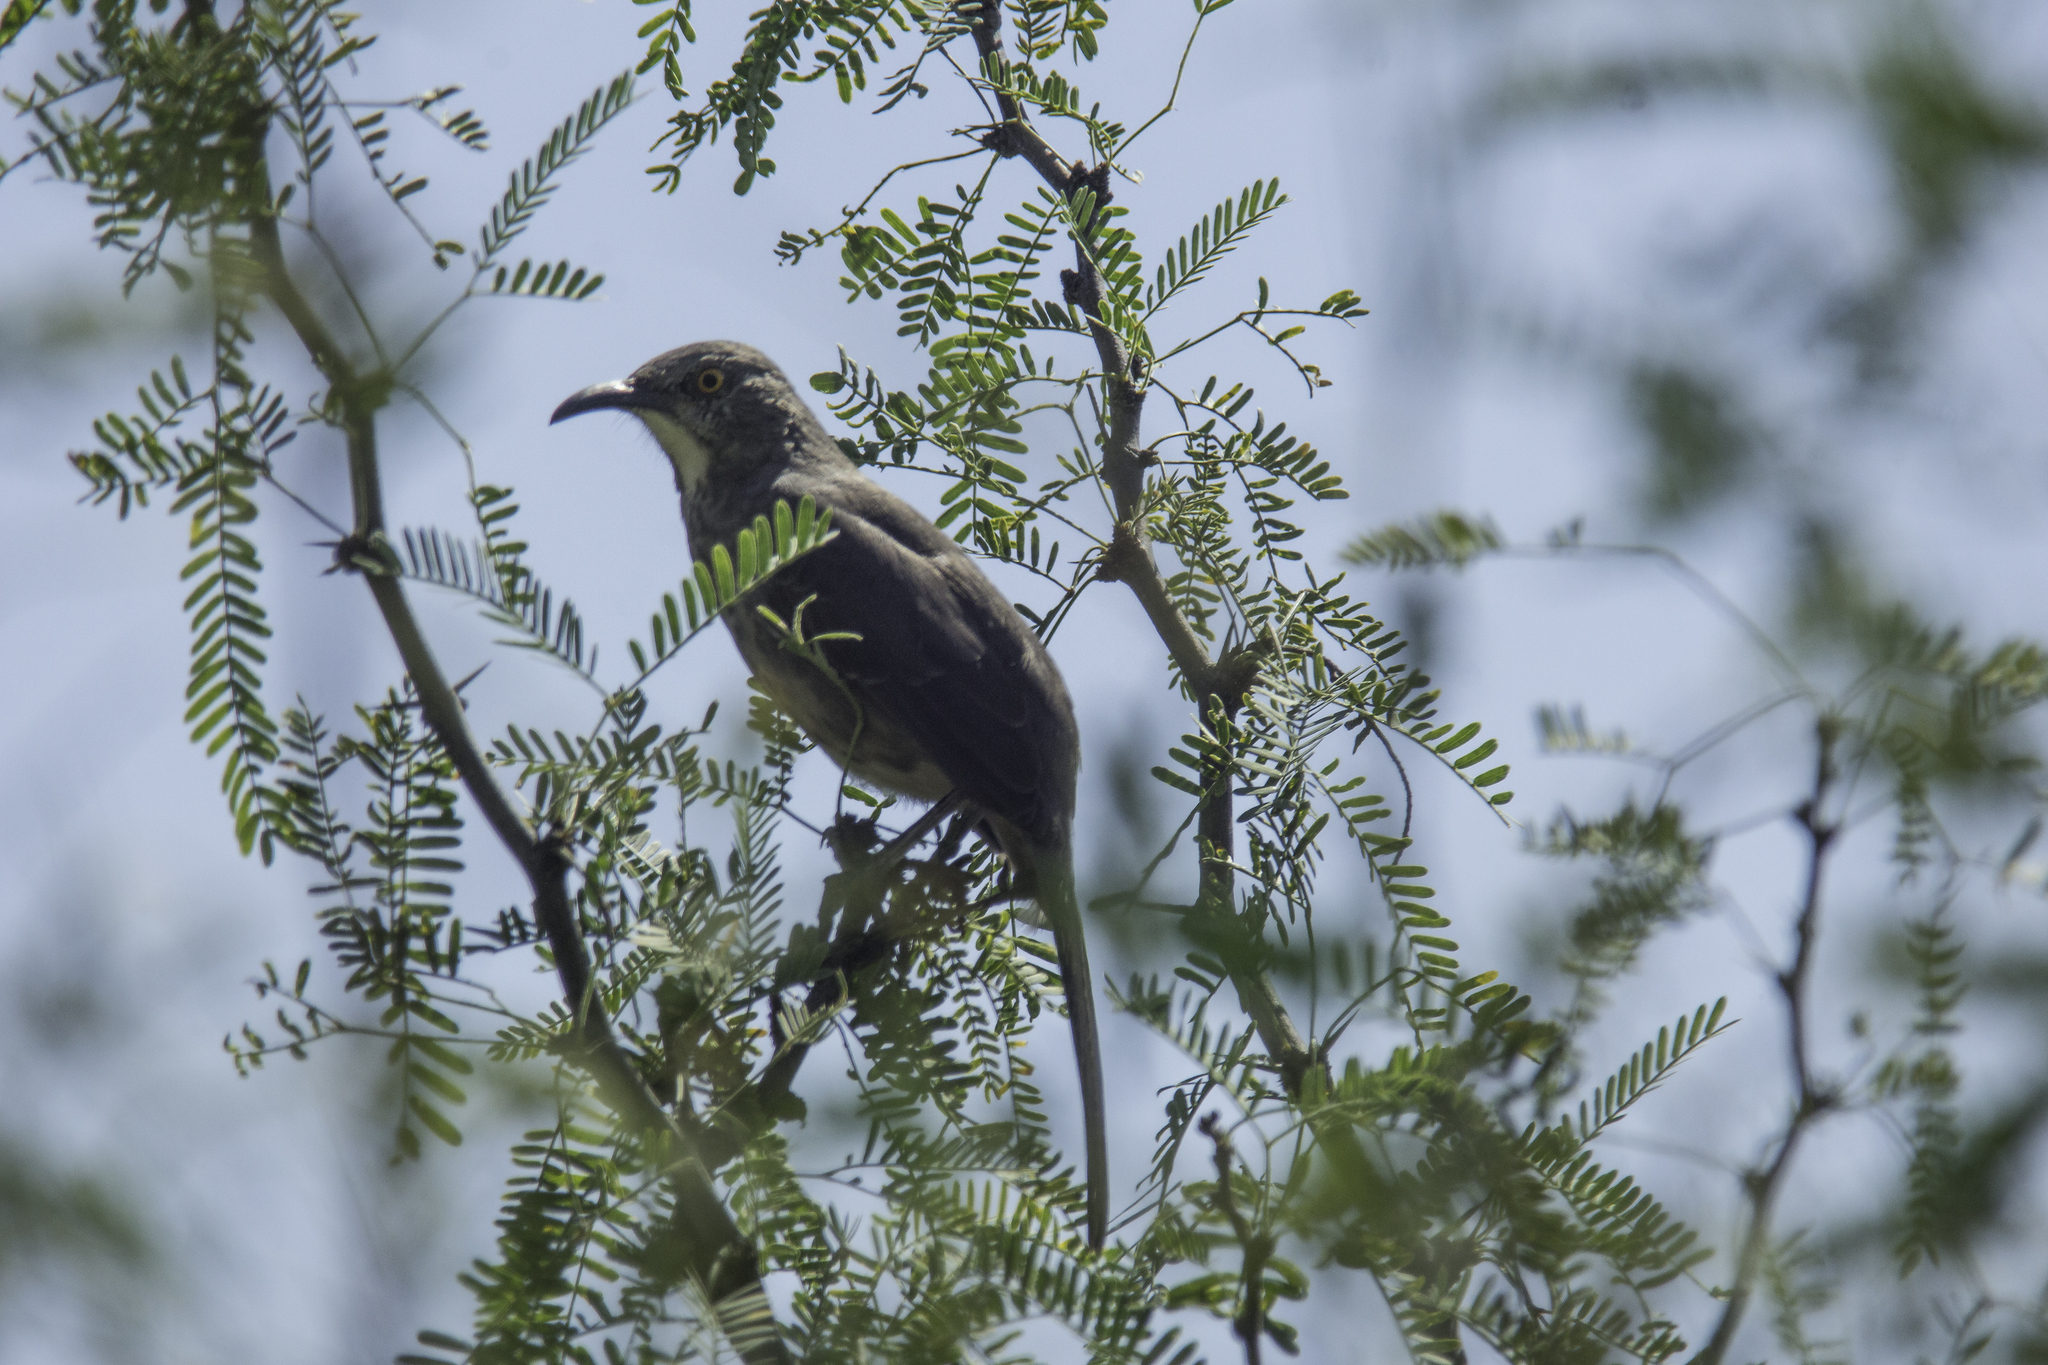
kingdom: Animalia
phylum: Chordata
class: Aves
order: Passeriformes
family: Mimidae
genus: Toxostoma
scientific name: Toxostoma curvirostre
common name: Curve-billed thrasher
